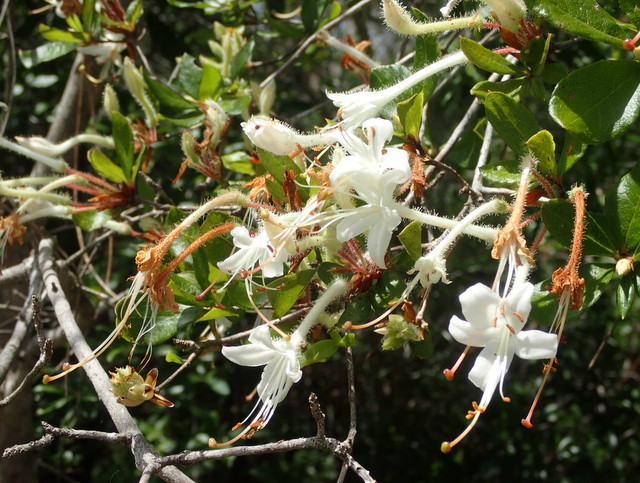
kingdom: Plantae
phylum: Tracheophyta
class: Magnoliopsida
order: Ericales
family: Ericaceae
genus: Rhododendron
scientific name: Rhododendron serrulatum
